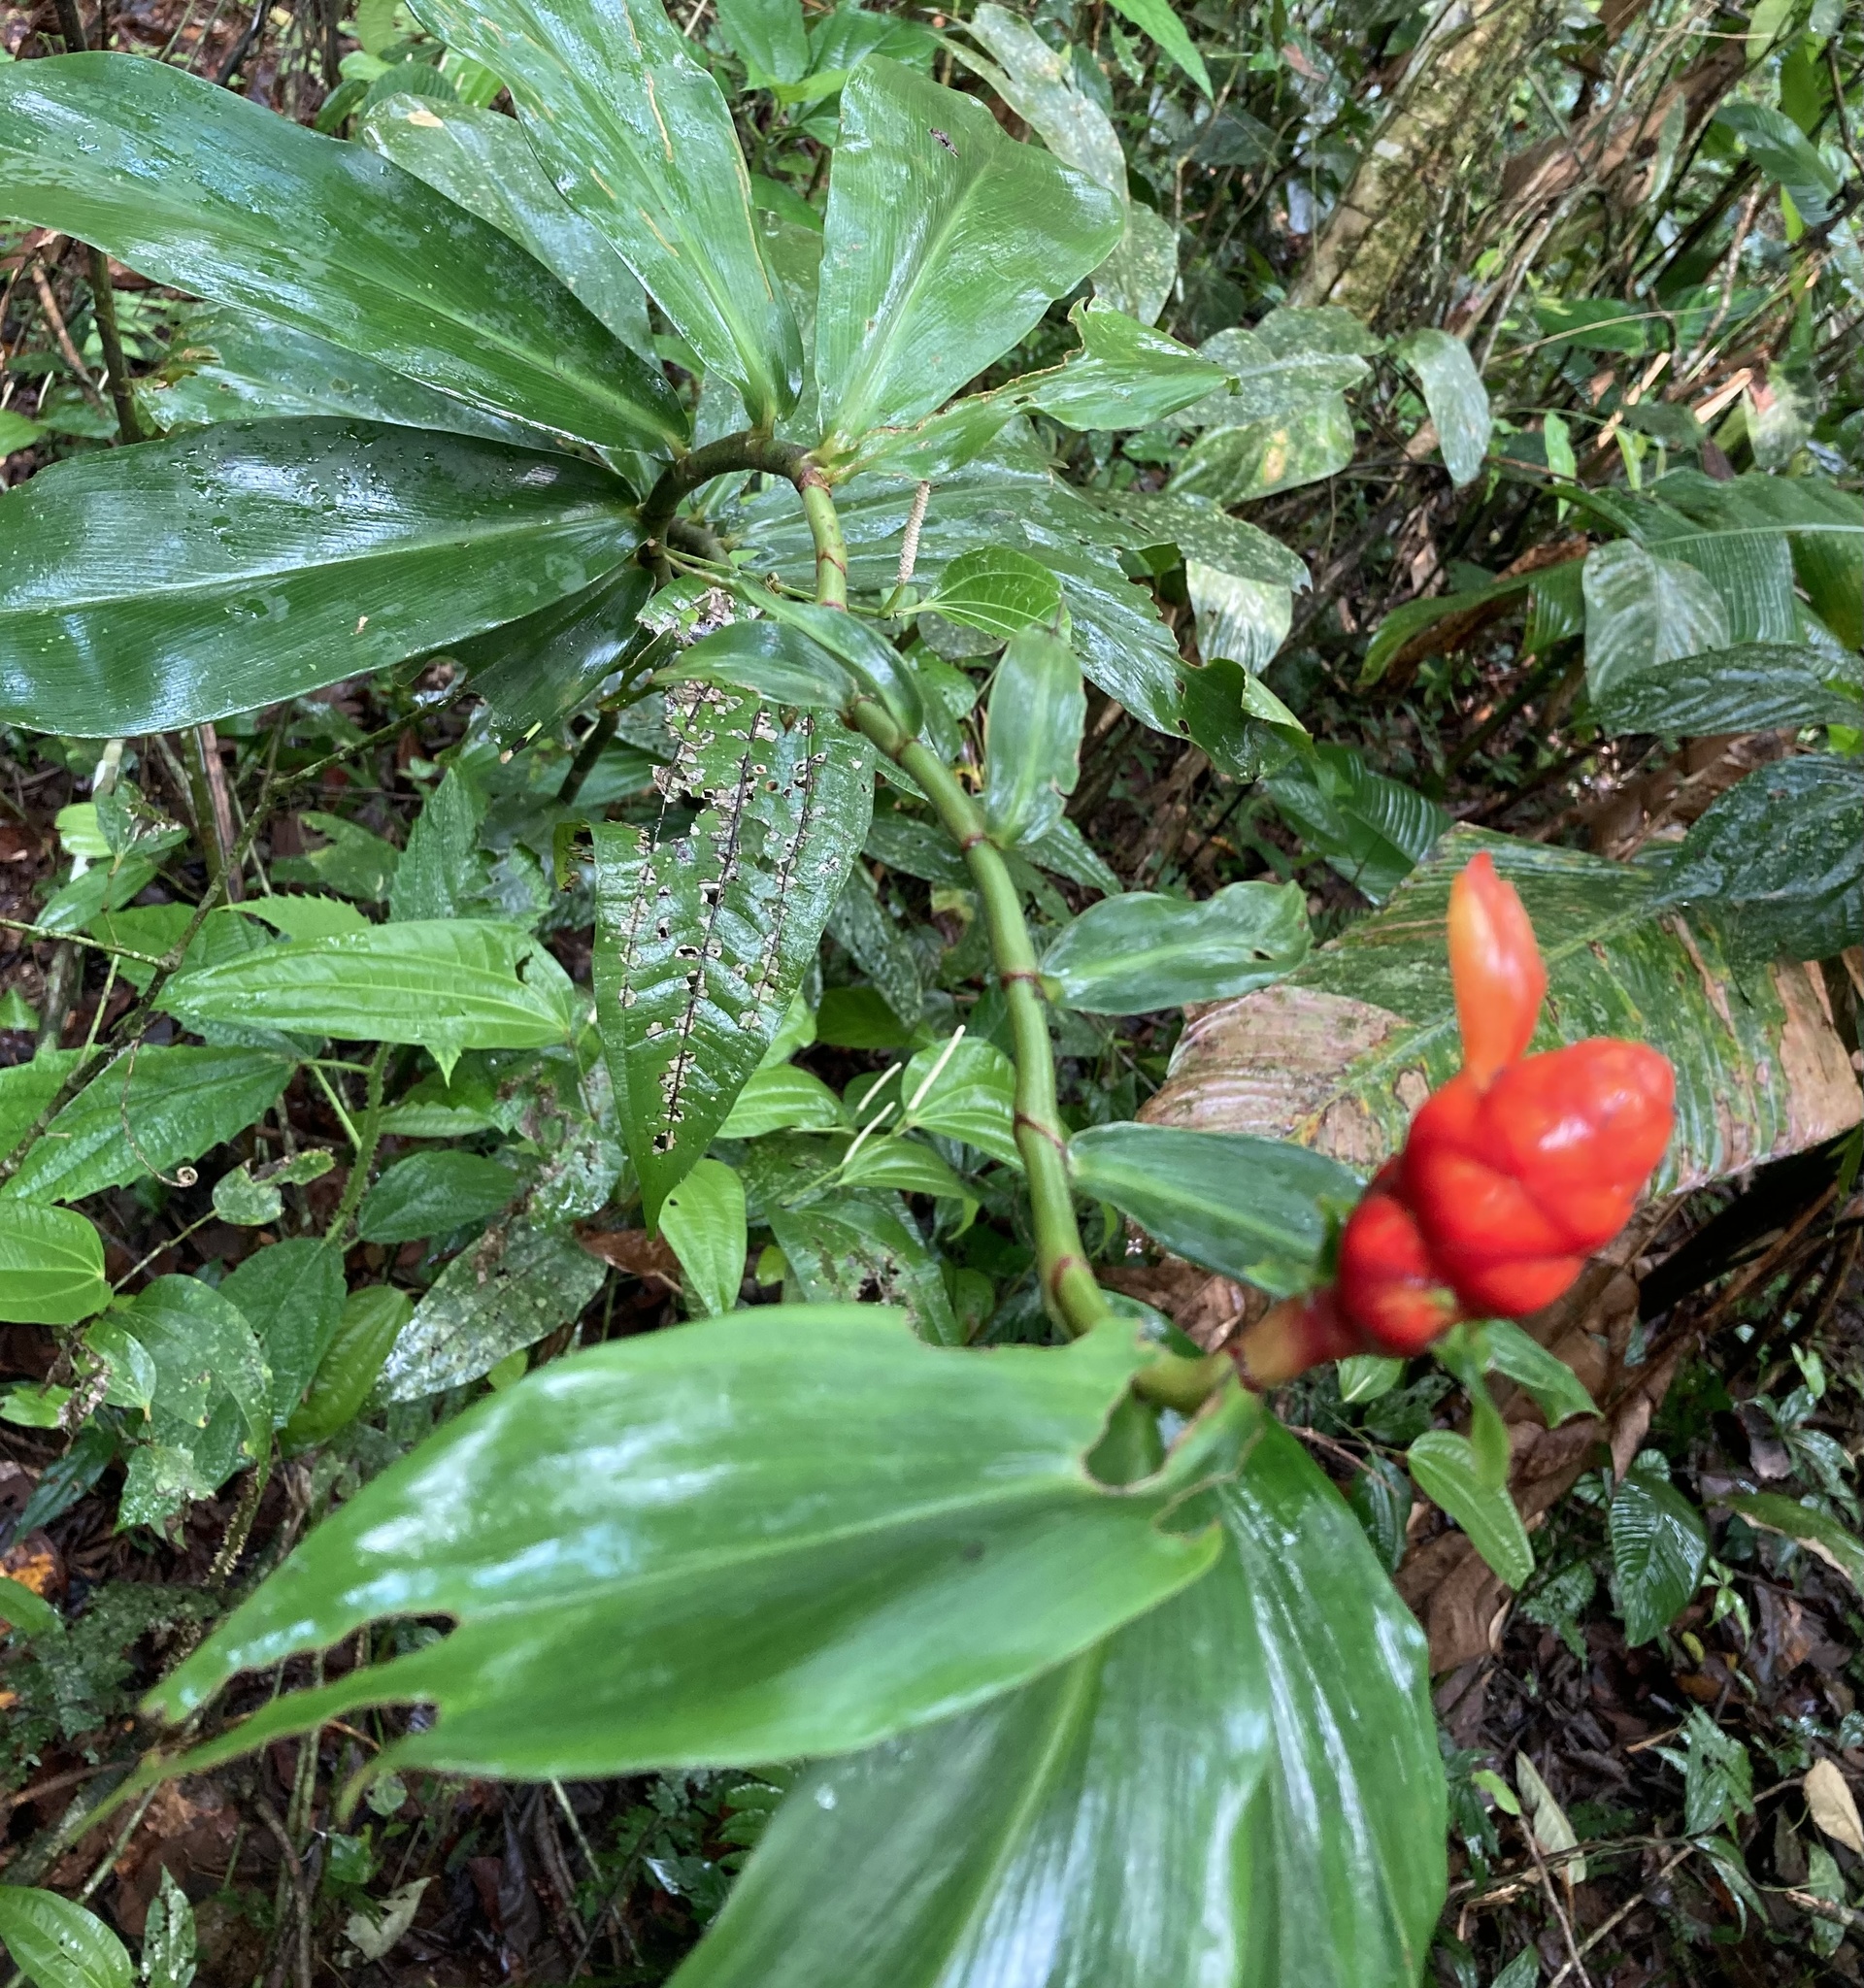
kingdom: Plantae
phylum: Tracheophyta
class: Liliopsida
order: Zingiberales
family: Costaceae
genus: Costus
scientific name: Costus scaber
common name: Spiral head ginger
